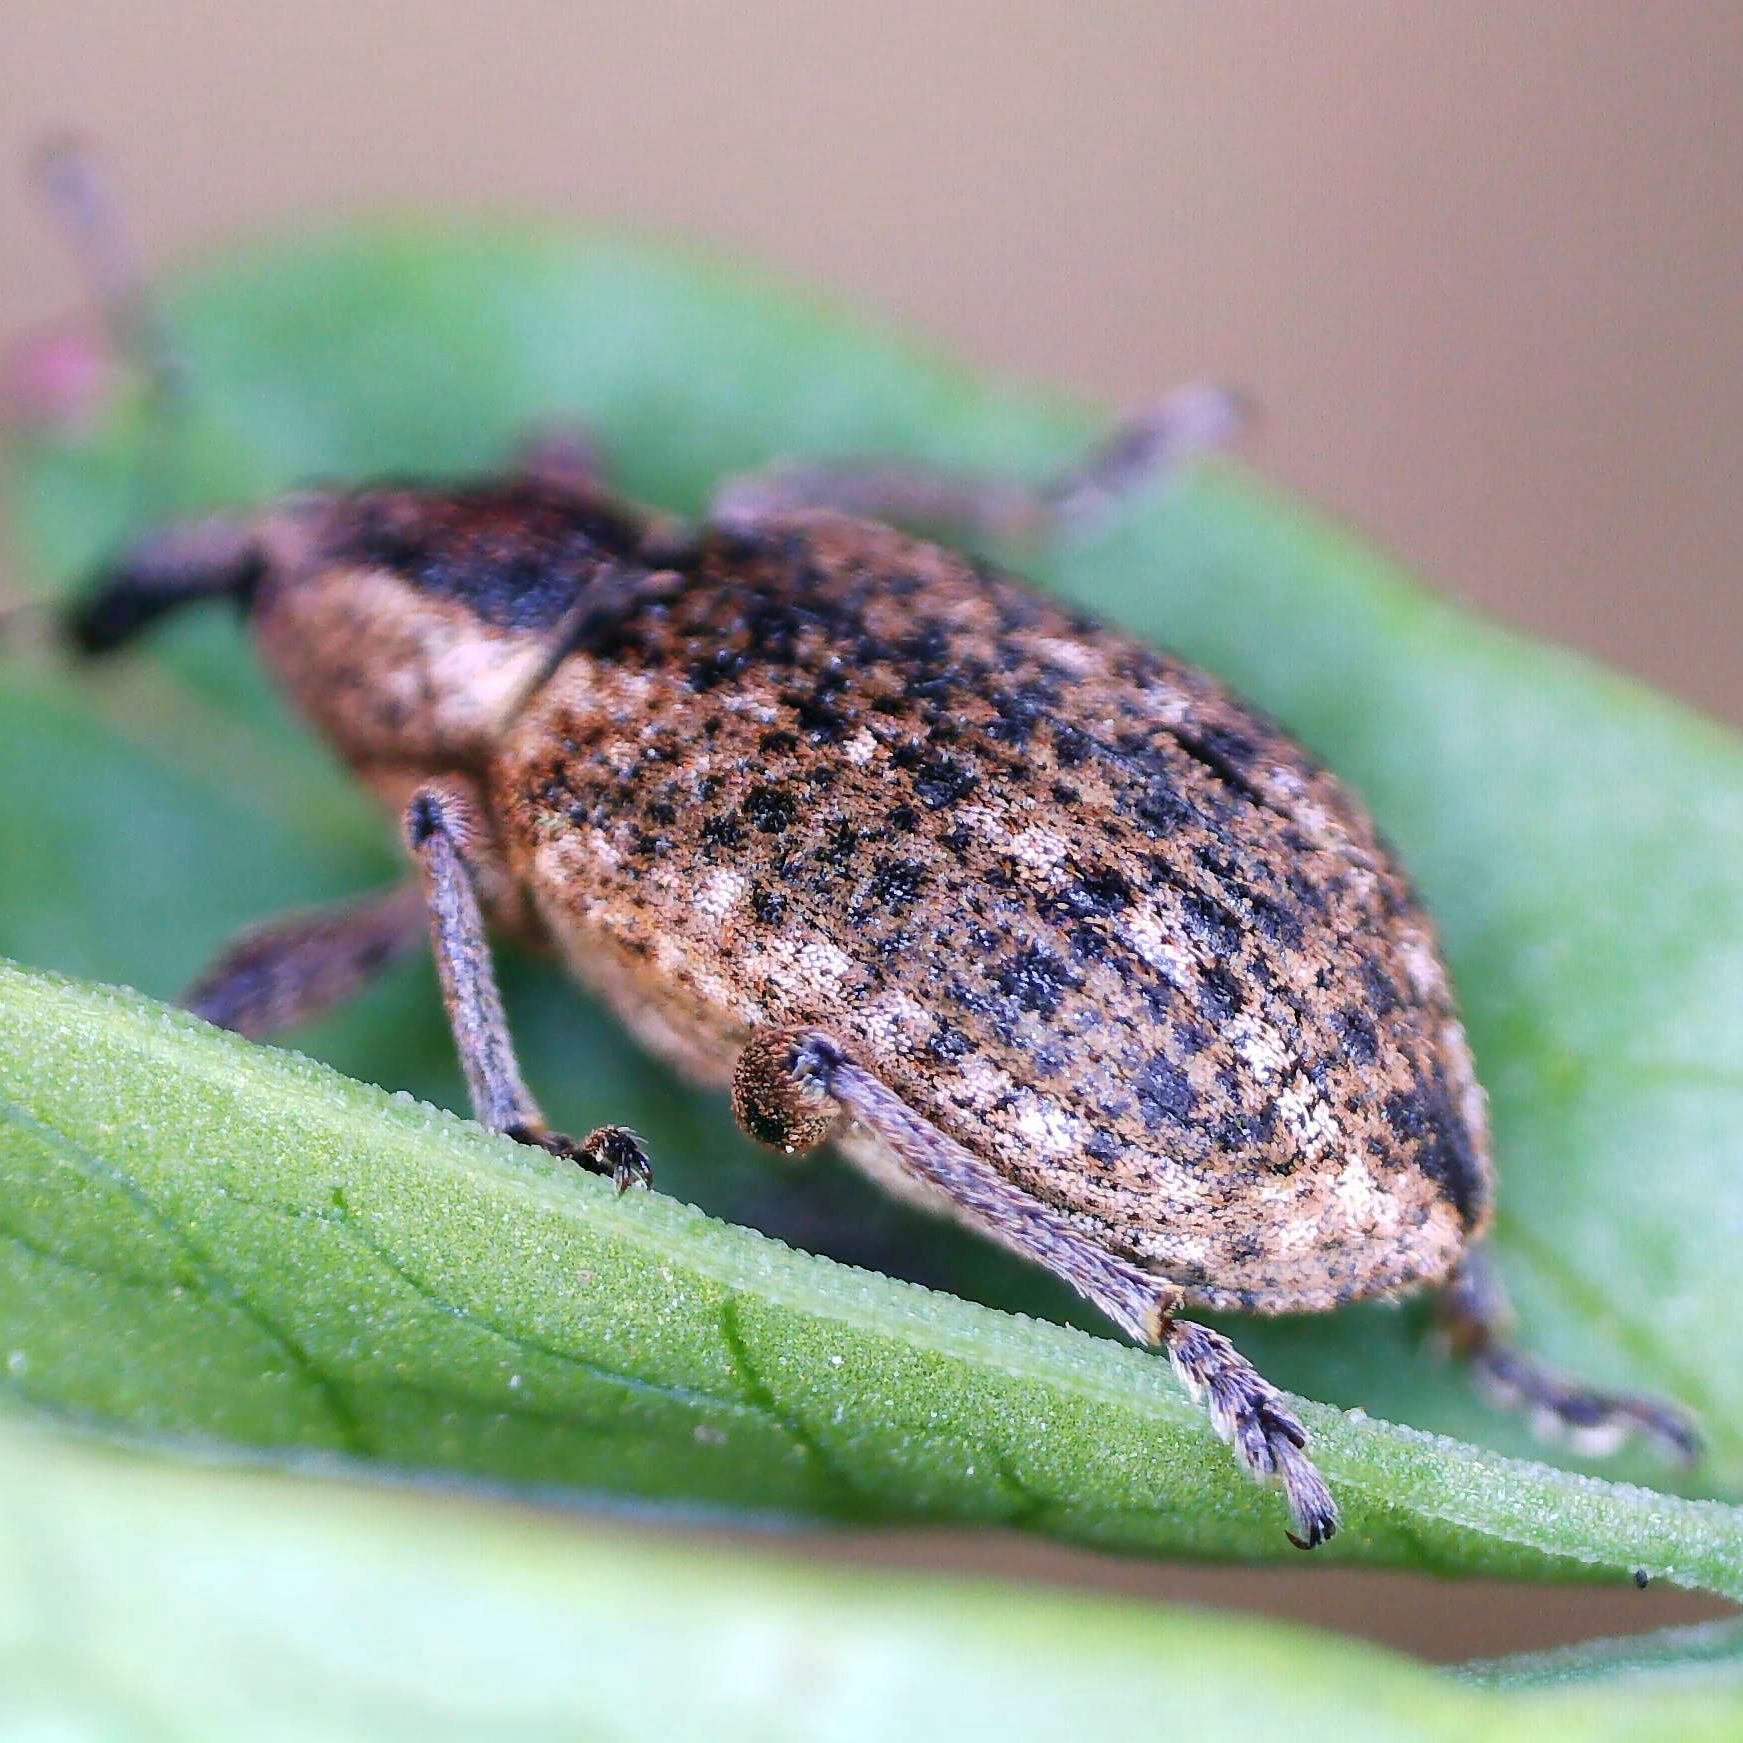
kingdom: Animalia
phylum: Arthropoda
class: Insecta
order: Coleoptera
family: Curculionidae
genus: Hypera
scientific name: Hypera conmaculata
